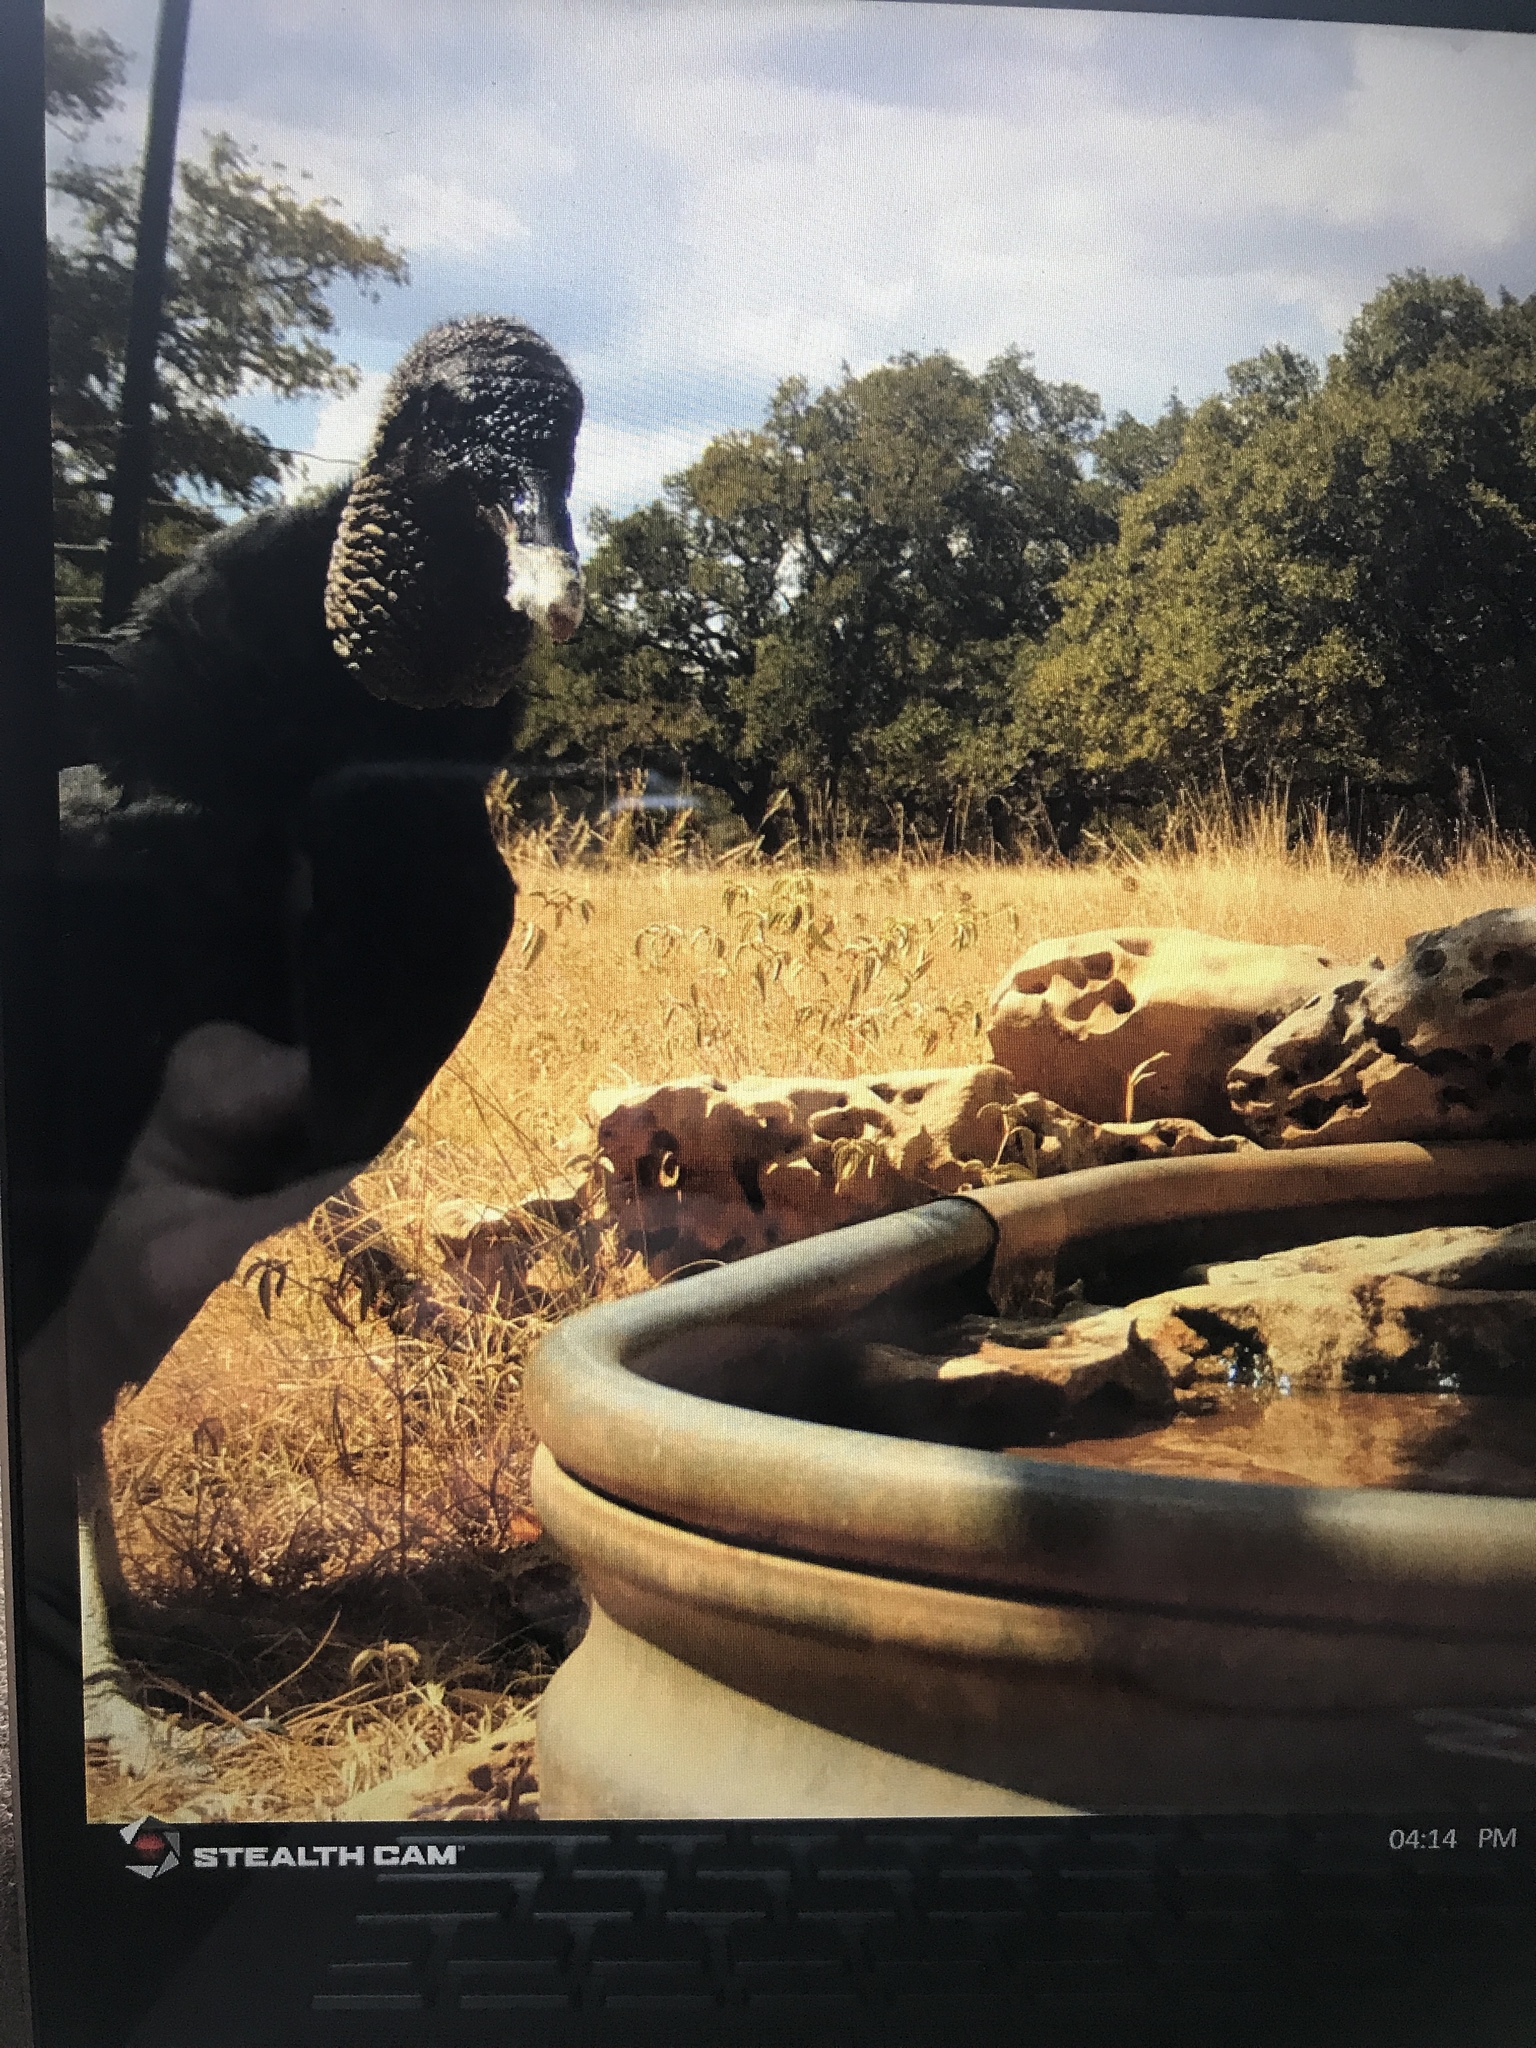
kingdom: Animalia
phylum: Chordata
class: Aves
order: Accipitriformes
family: Cathartidae
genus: Coragyps
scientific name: Coragyps atratus
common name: Black vulture
